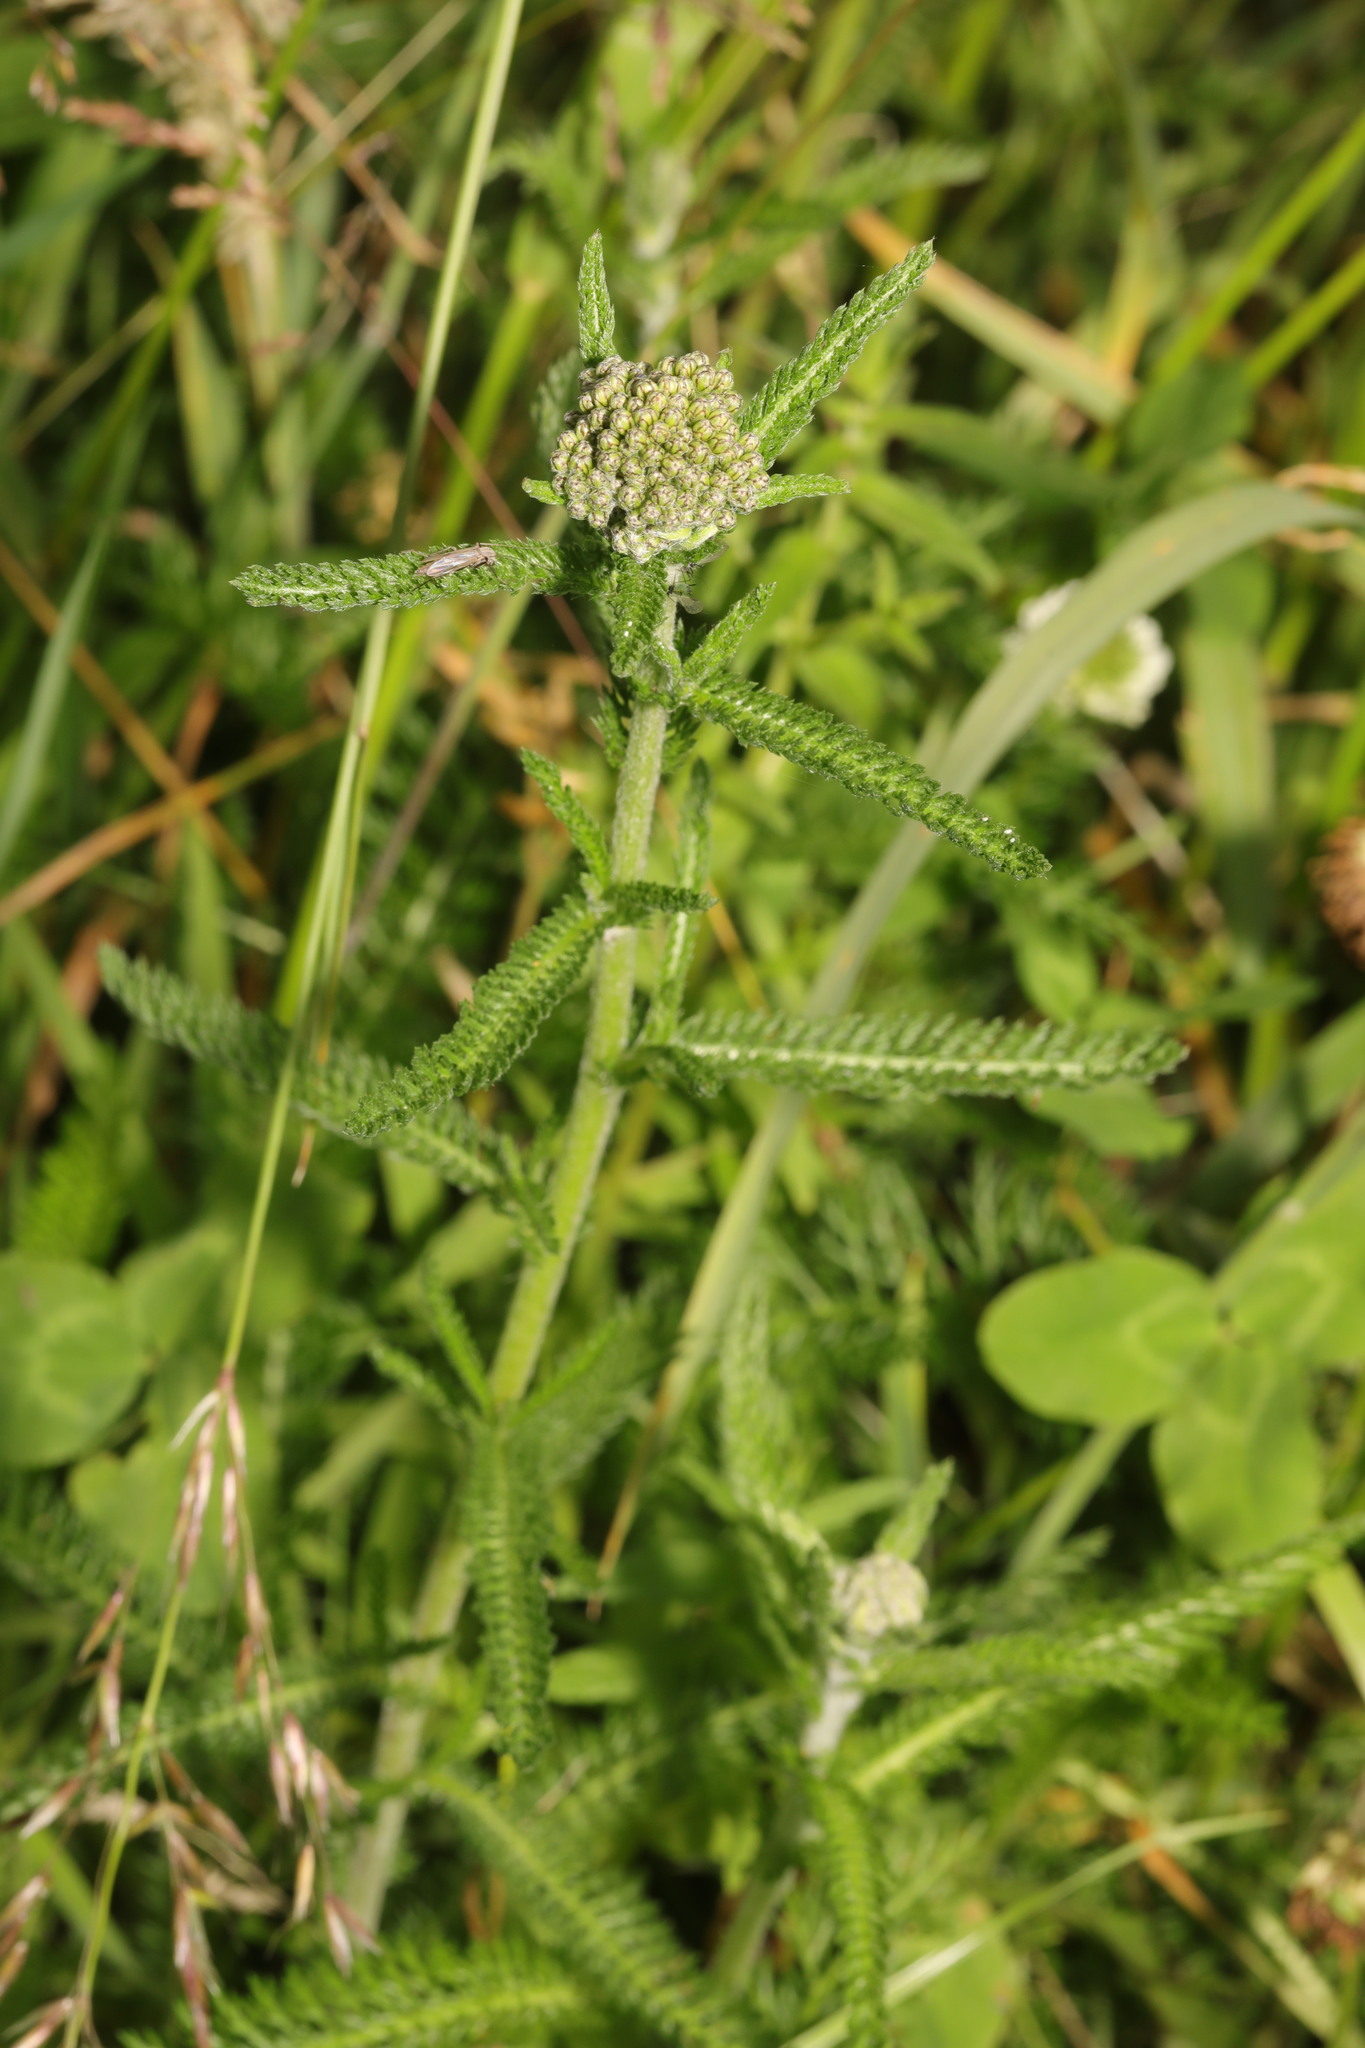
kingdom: Plantae
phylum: Tracheophyta
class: Magnoliopsida
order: Asterales
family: Asteraceae
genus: Achillea
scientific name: Achillea millefolium
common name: Yarrow
